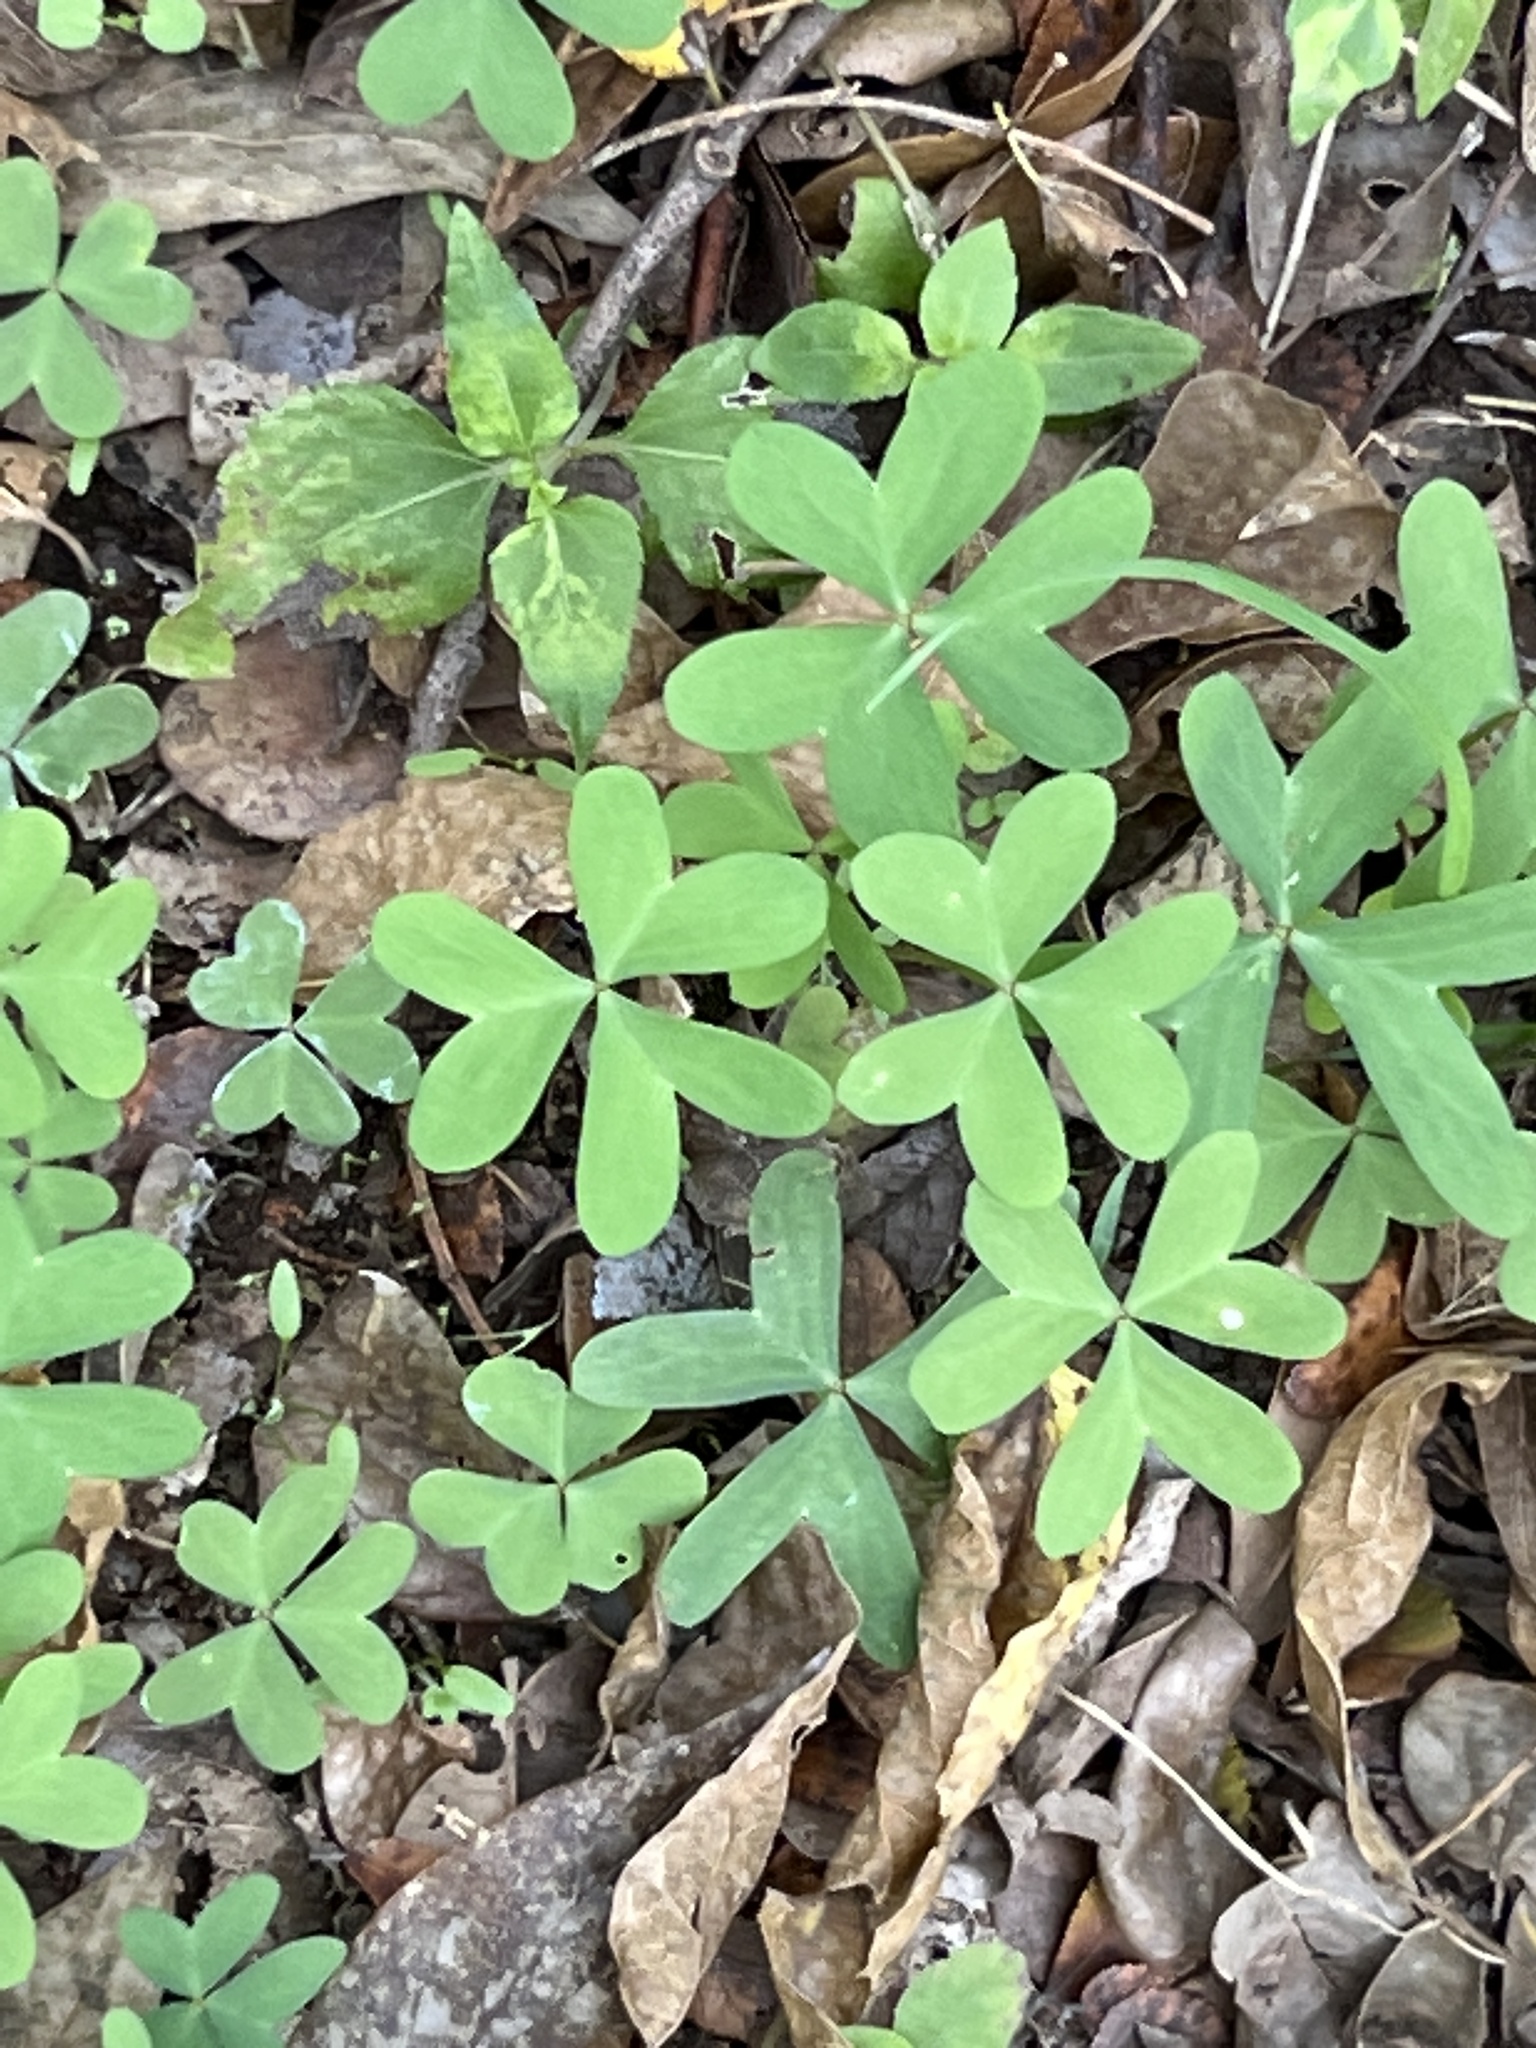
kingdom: Plantae
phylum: Tracheophyta
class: Magnoliopsida
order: Oxalidales
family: Oxalidaceae
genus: Oxalis
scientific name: Oxalis drummondii
